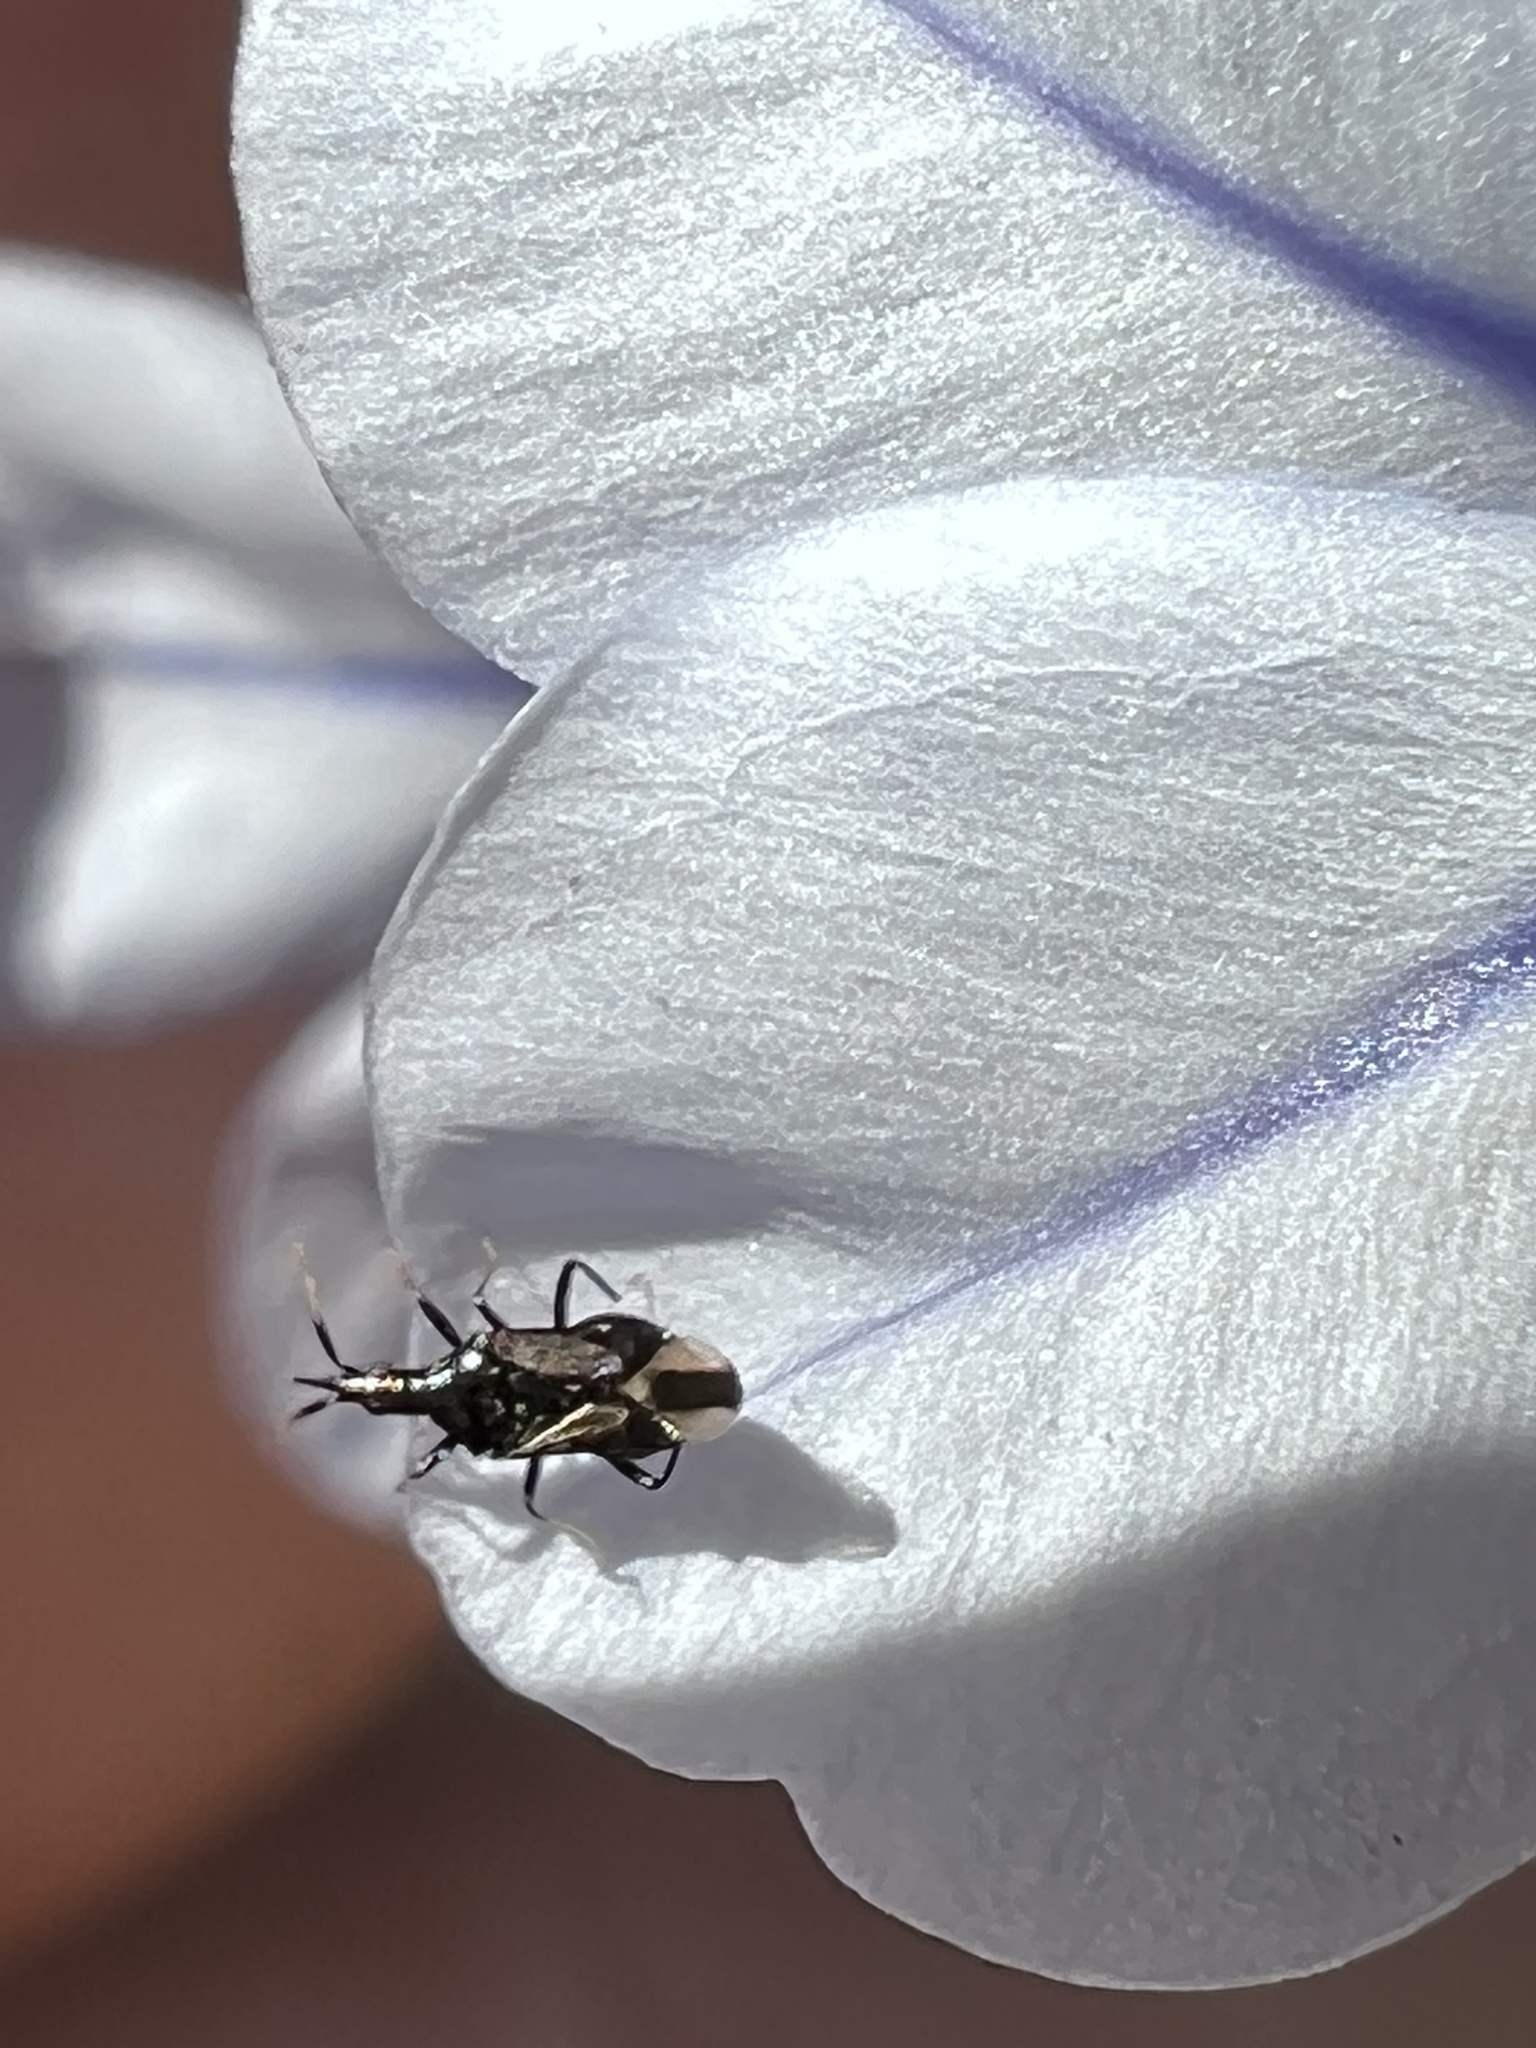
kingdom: Animalia
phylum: Arthropoda
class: Insecta
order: Hemiptera
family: Anthocoridae
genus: Montandoniola
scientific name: Montandoniola confusa
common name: Minute pirate bug
